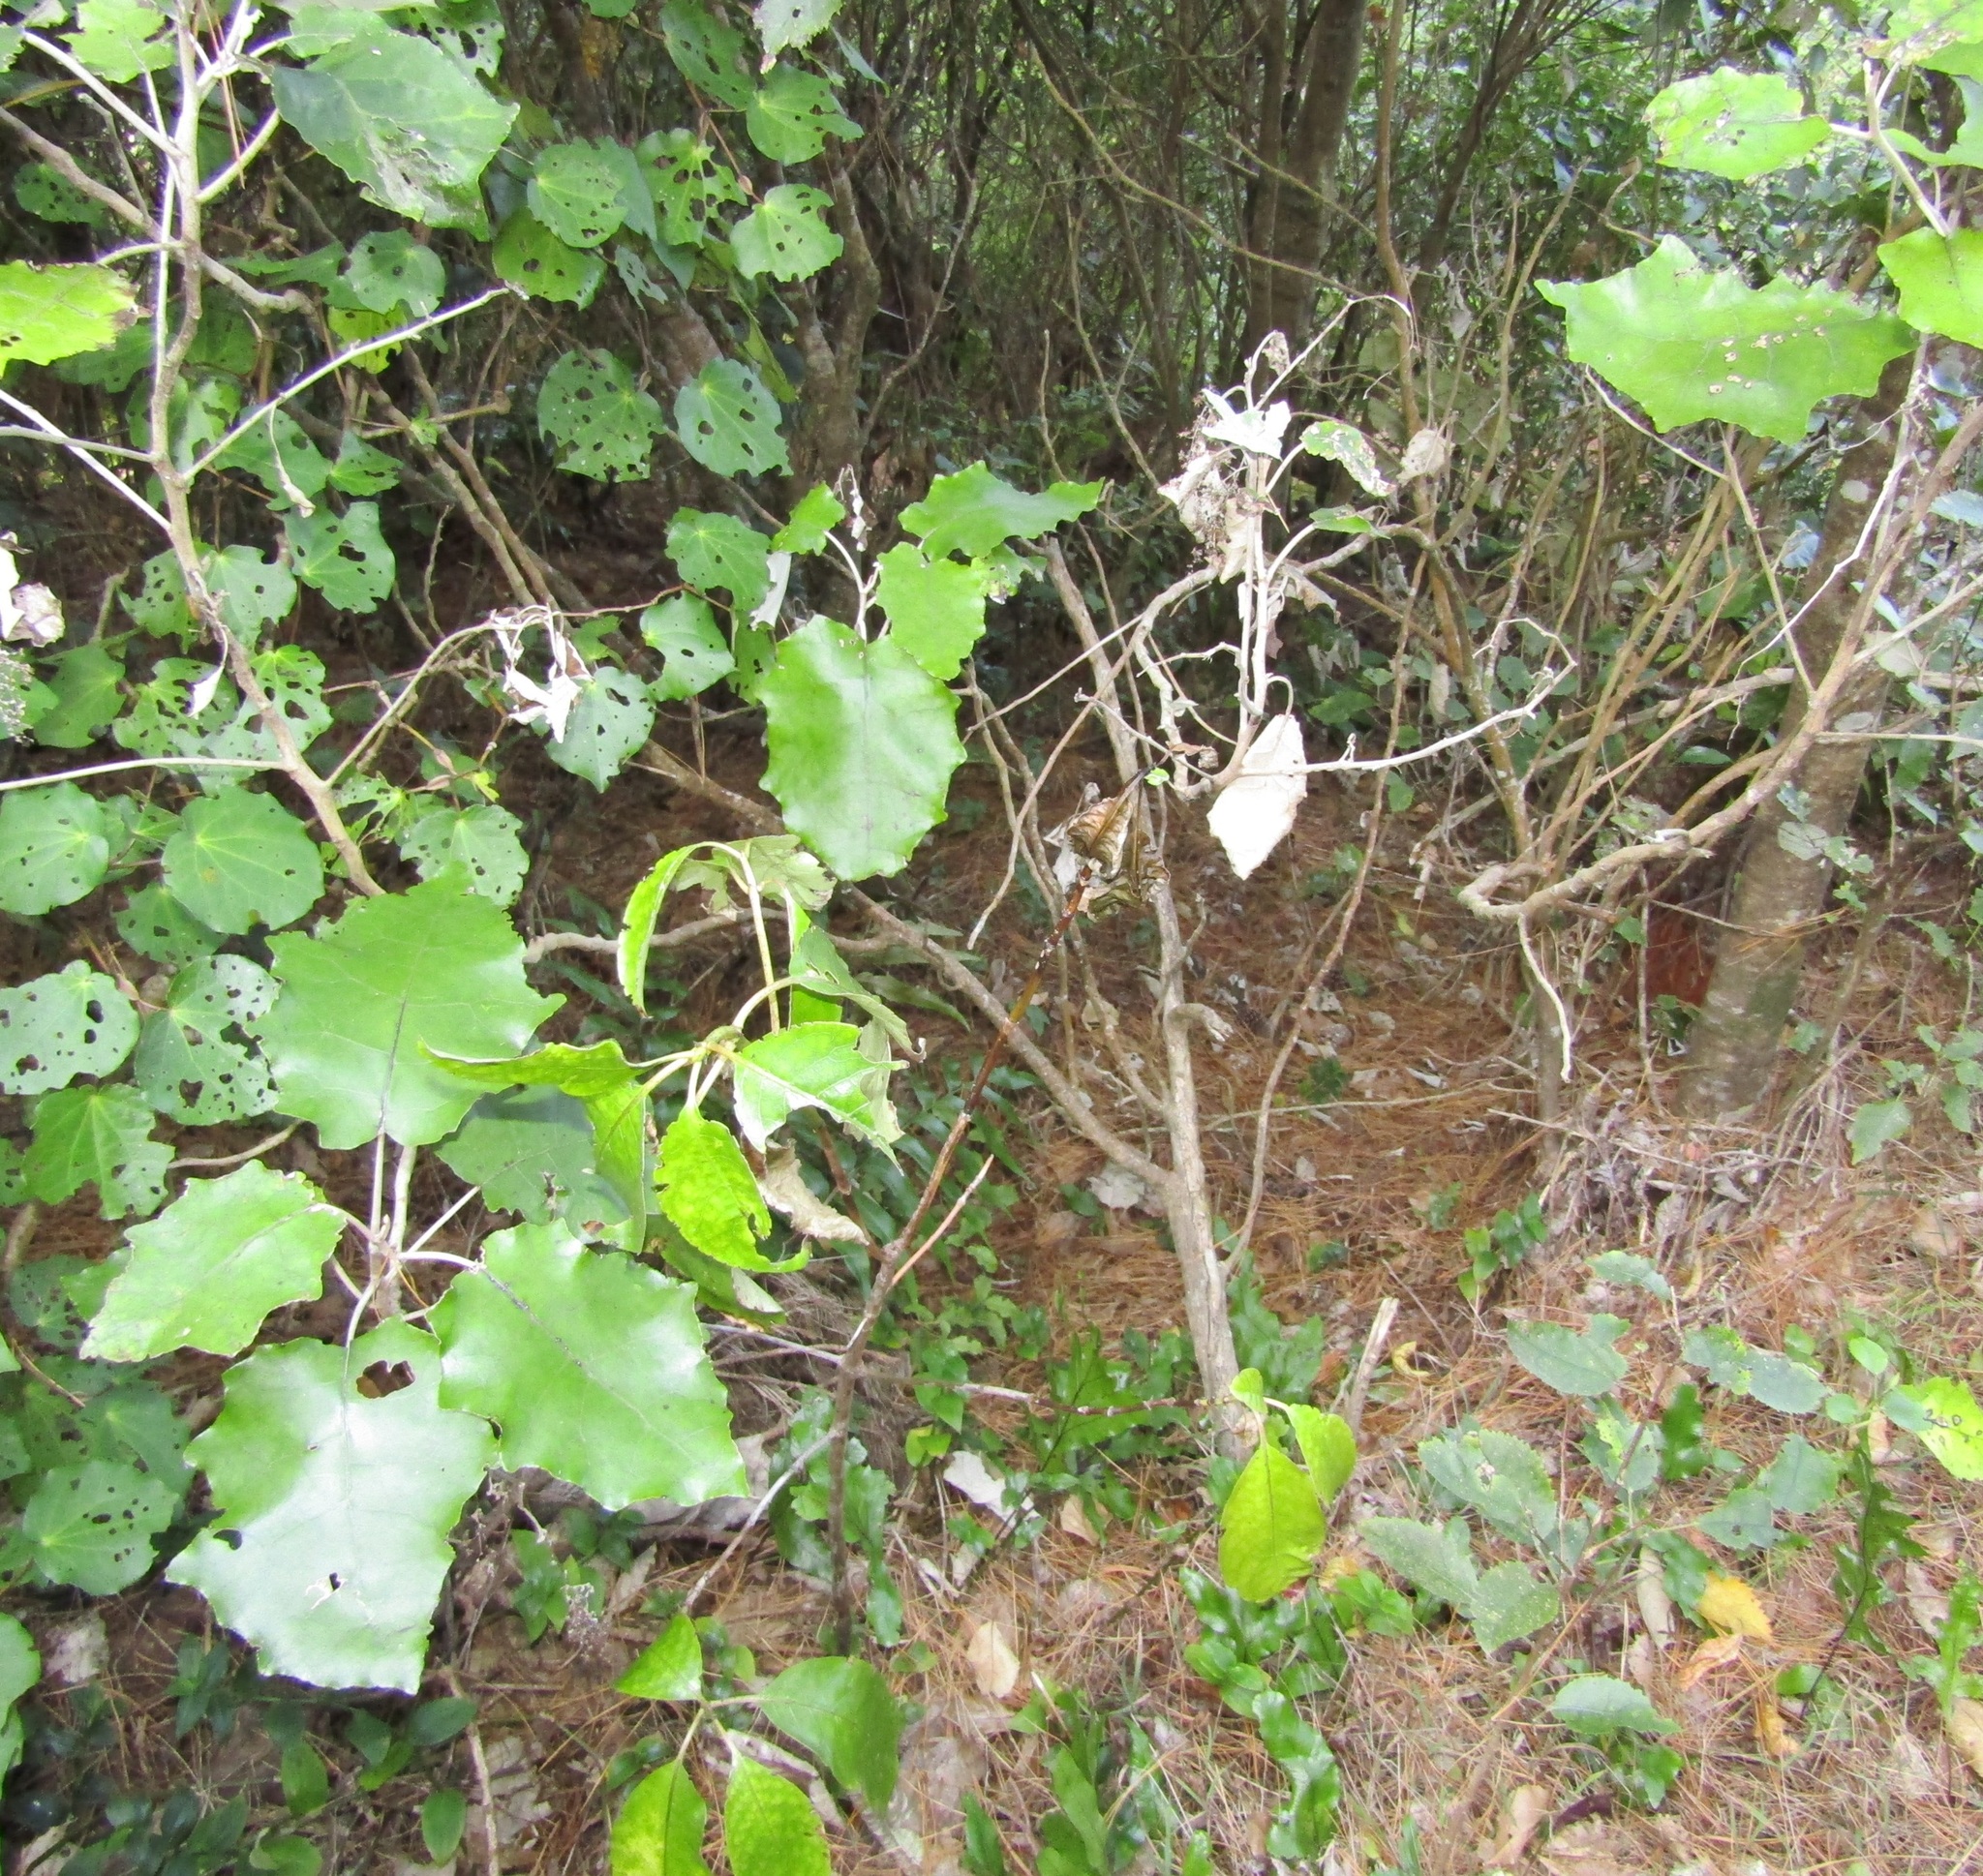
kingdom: Plantae
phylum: Tracheophyta
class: Magnoliopsida
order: Asterales
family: Asteraceae
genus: Brachyglottis
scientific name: Brachyglottis repanda
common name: Hedge ragwort
